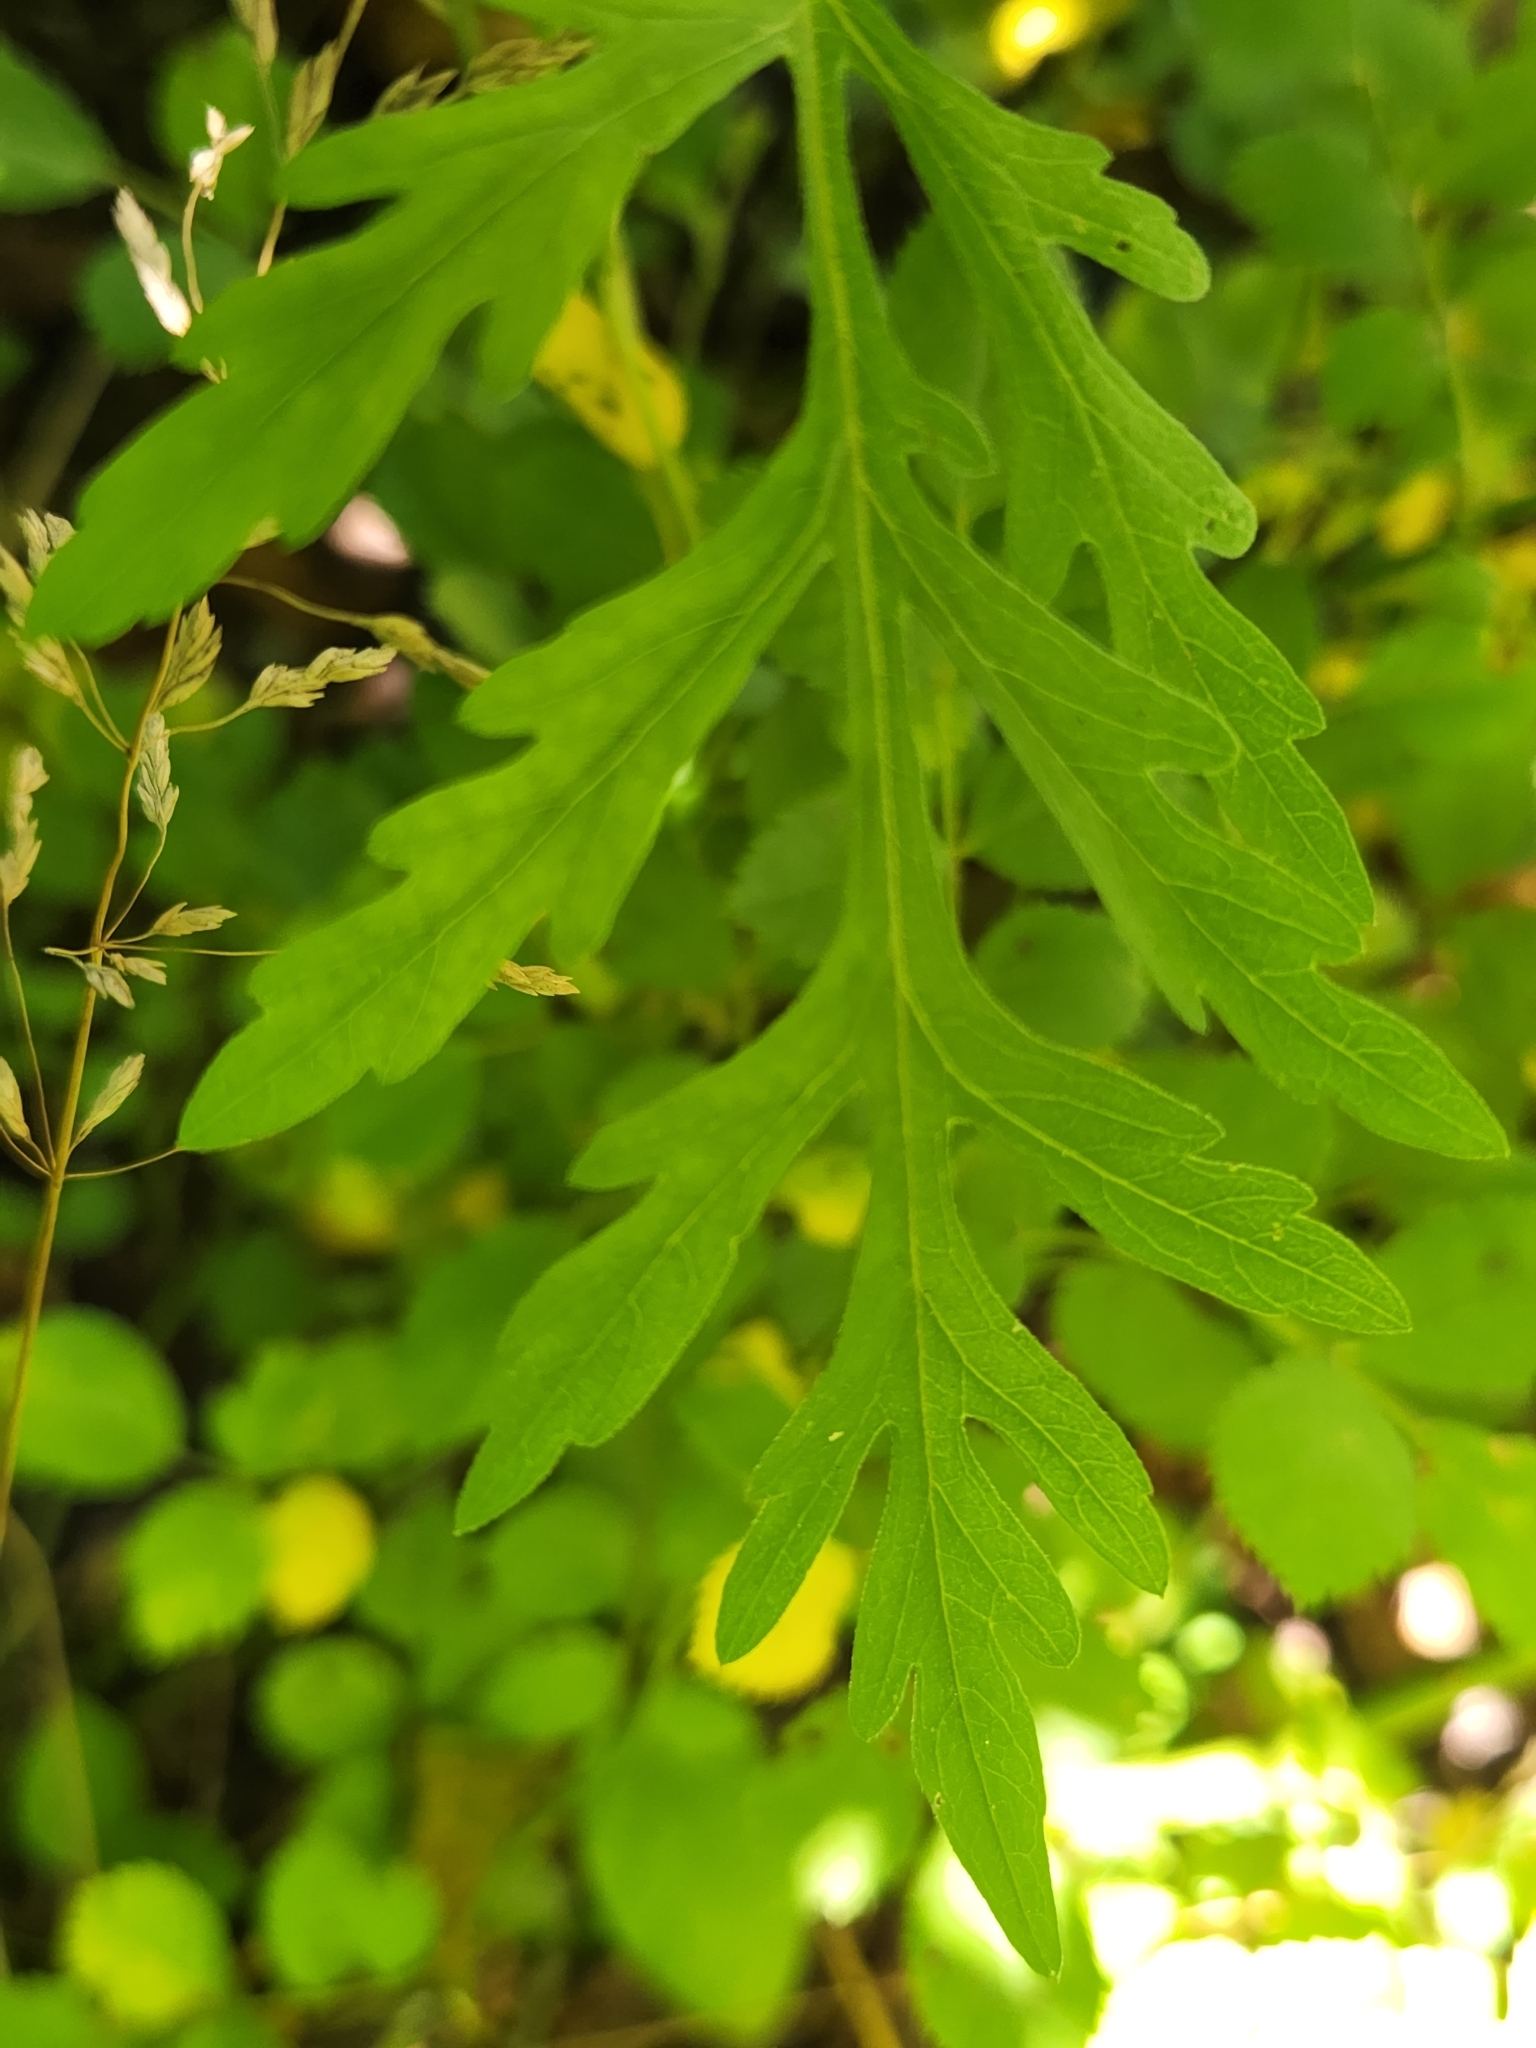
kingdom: Plantae
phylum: Tracheophyta
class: Magnoliopsida
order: Asterales
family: Asteraceae
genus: Ambrosia
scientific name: Ambrosia artemisiifolia
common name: Annual ragweed
